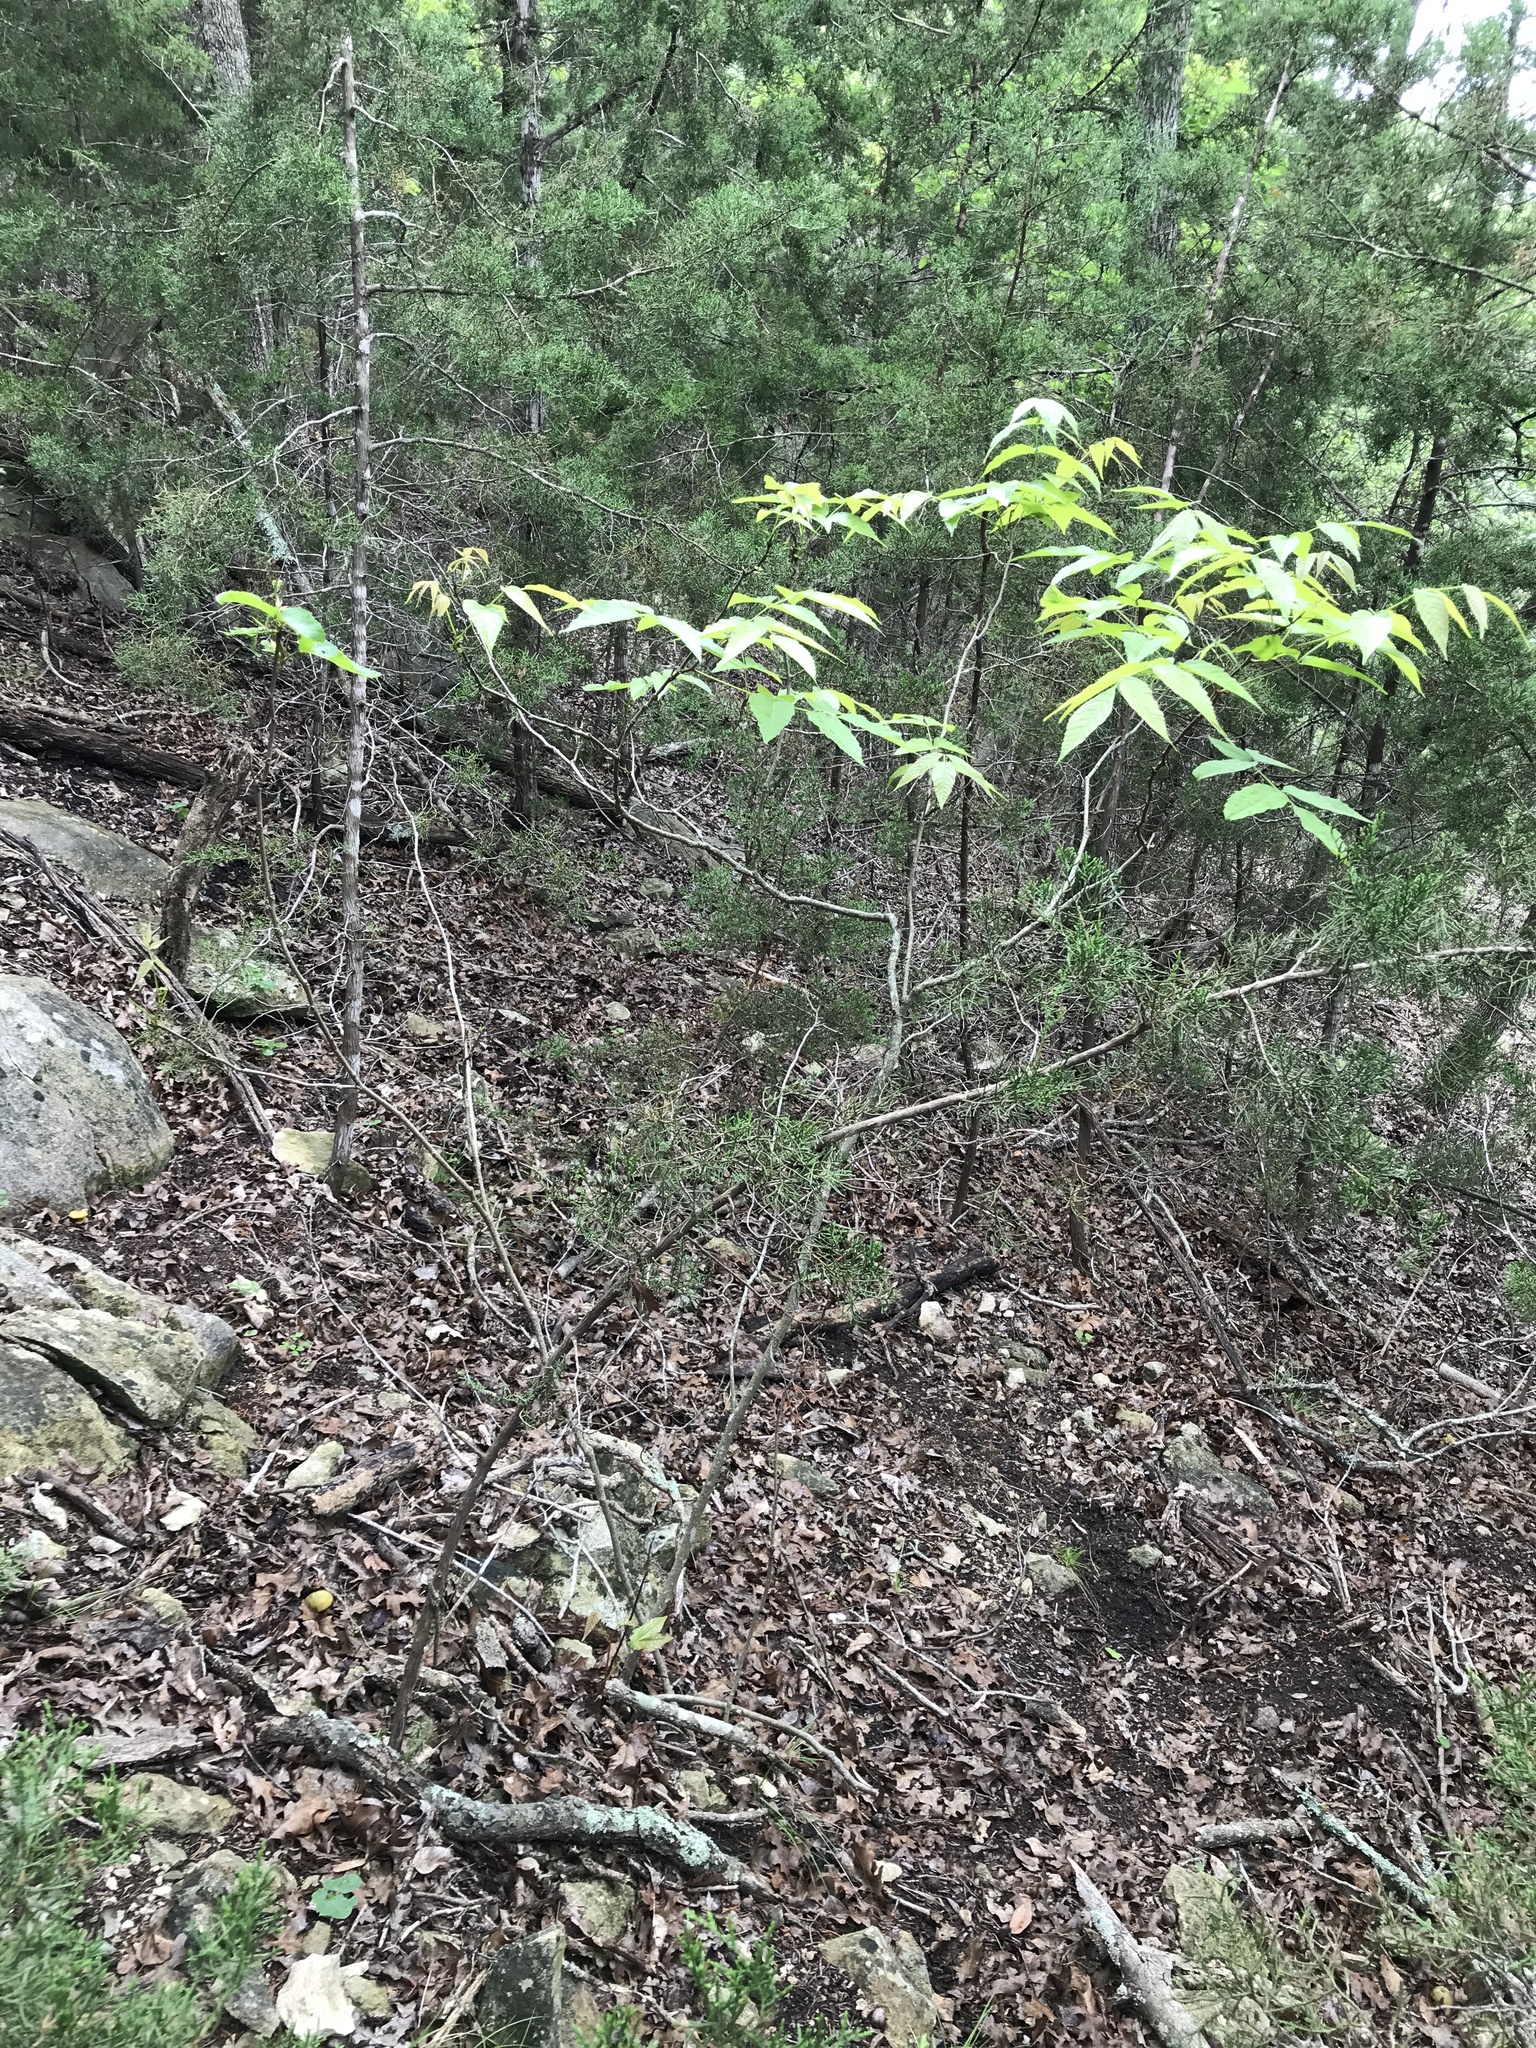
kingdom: Plantae
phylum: Tracheophyta
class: Magnoliopsida
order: Sapindales
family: Sapindaceae
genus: Ungnadia
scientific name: Ungnadia speciosa
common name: Texas-buckeye
